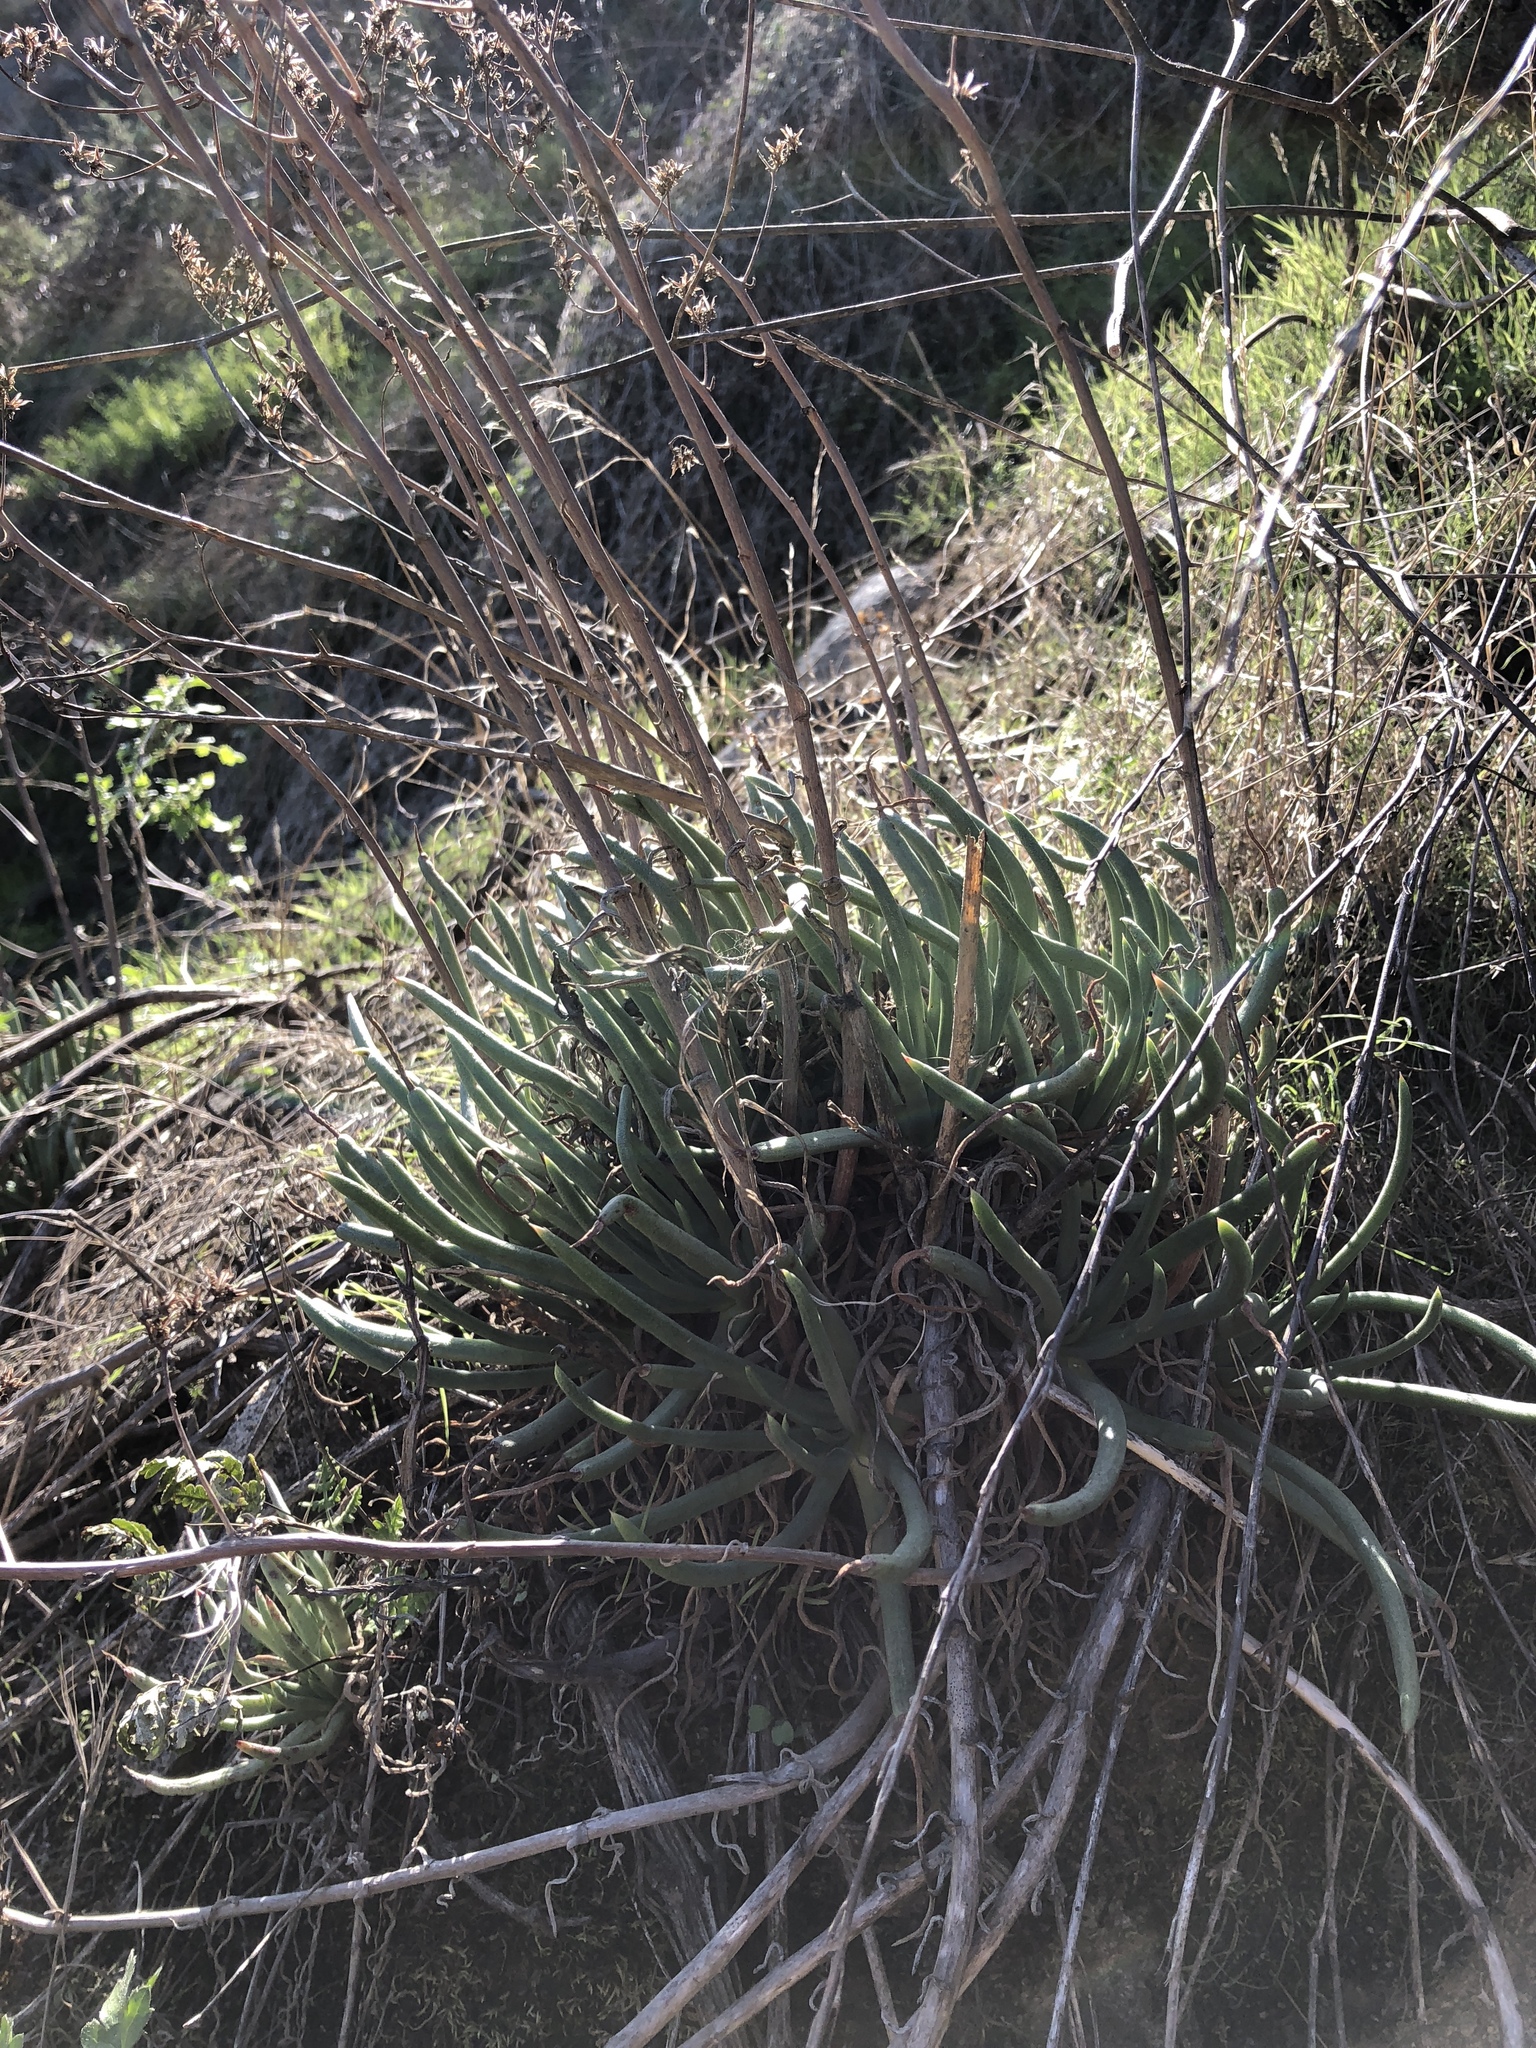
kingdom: Plantae
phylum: Tracheophyta
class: Magnoliopsida
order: Saxifragales
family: Crassulaceae
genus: Dudleya
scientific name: Dudleya edulis
